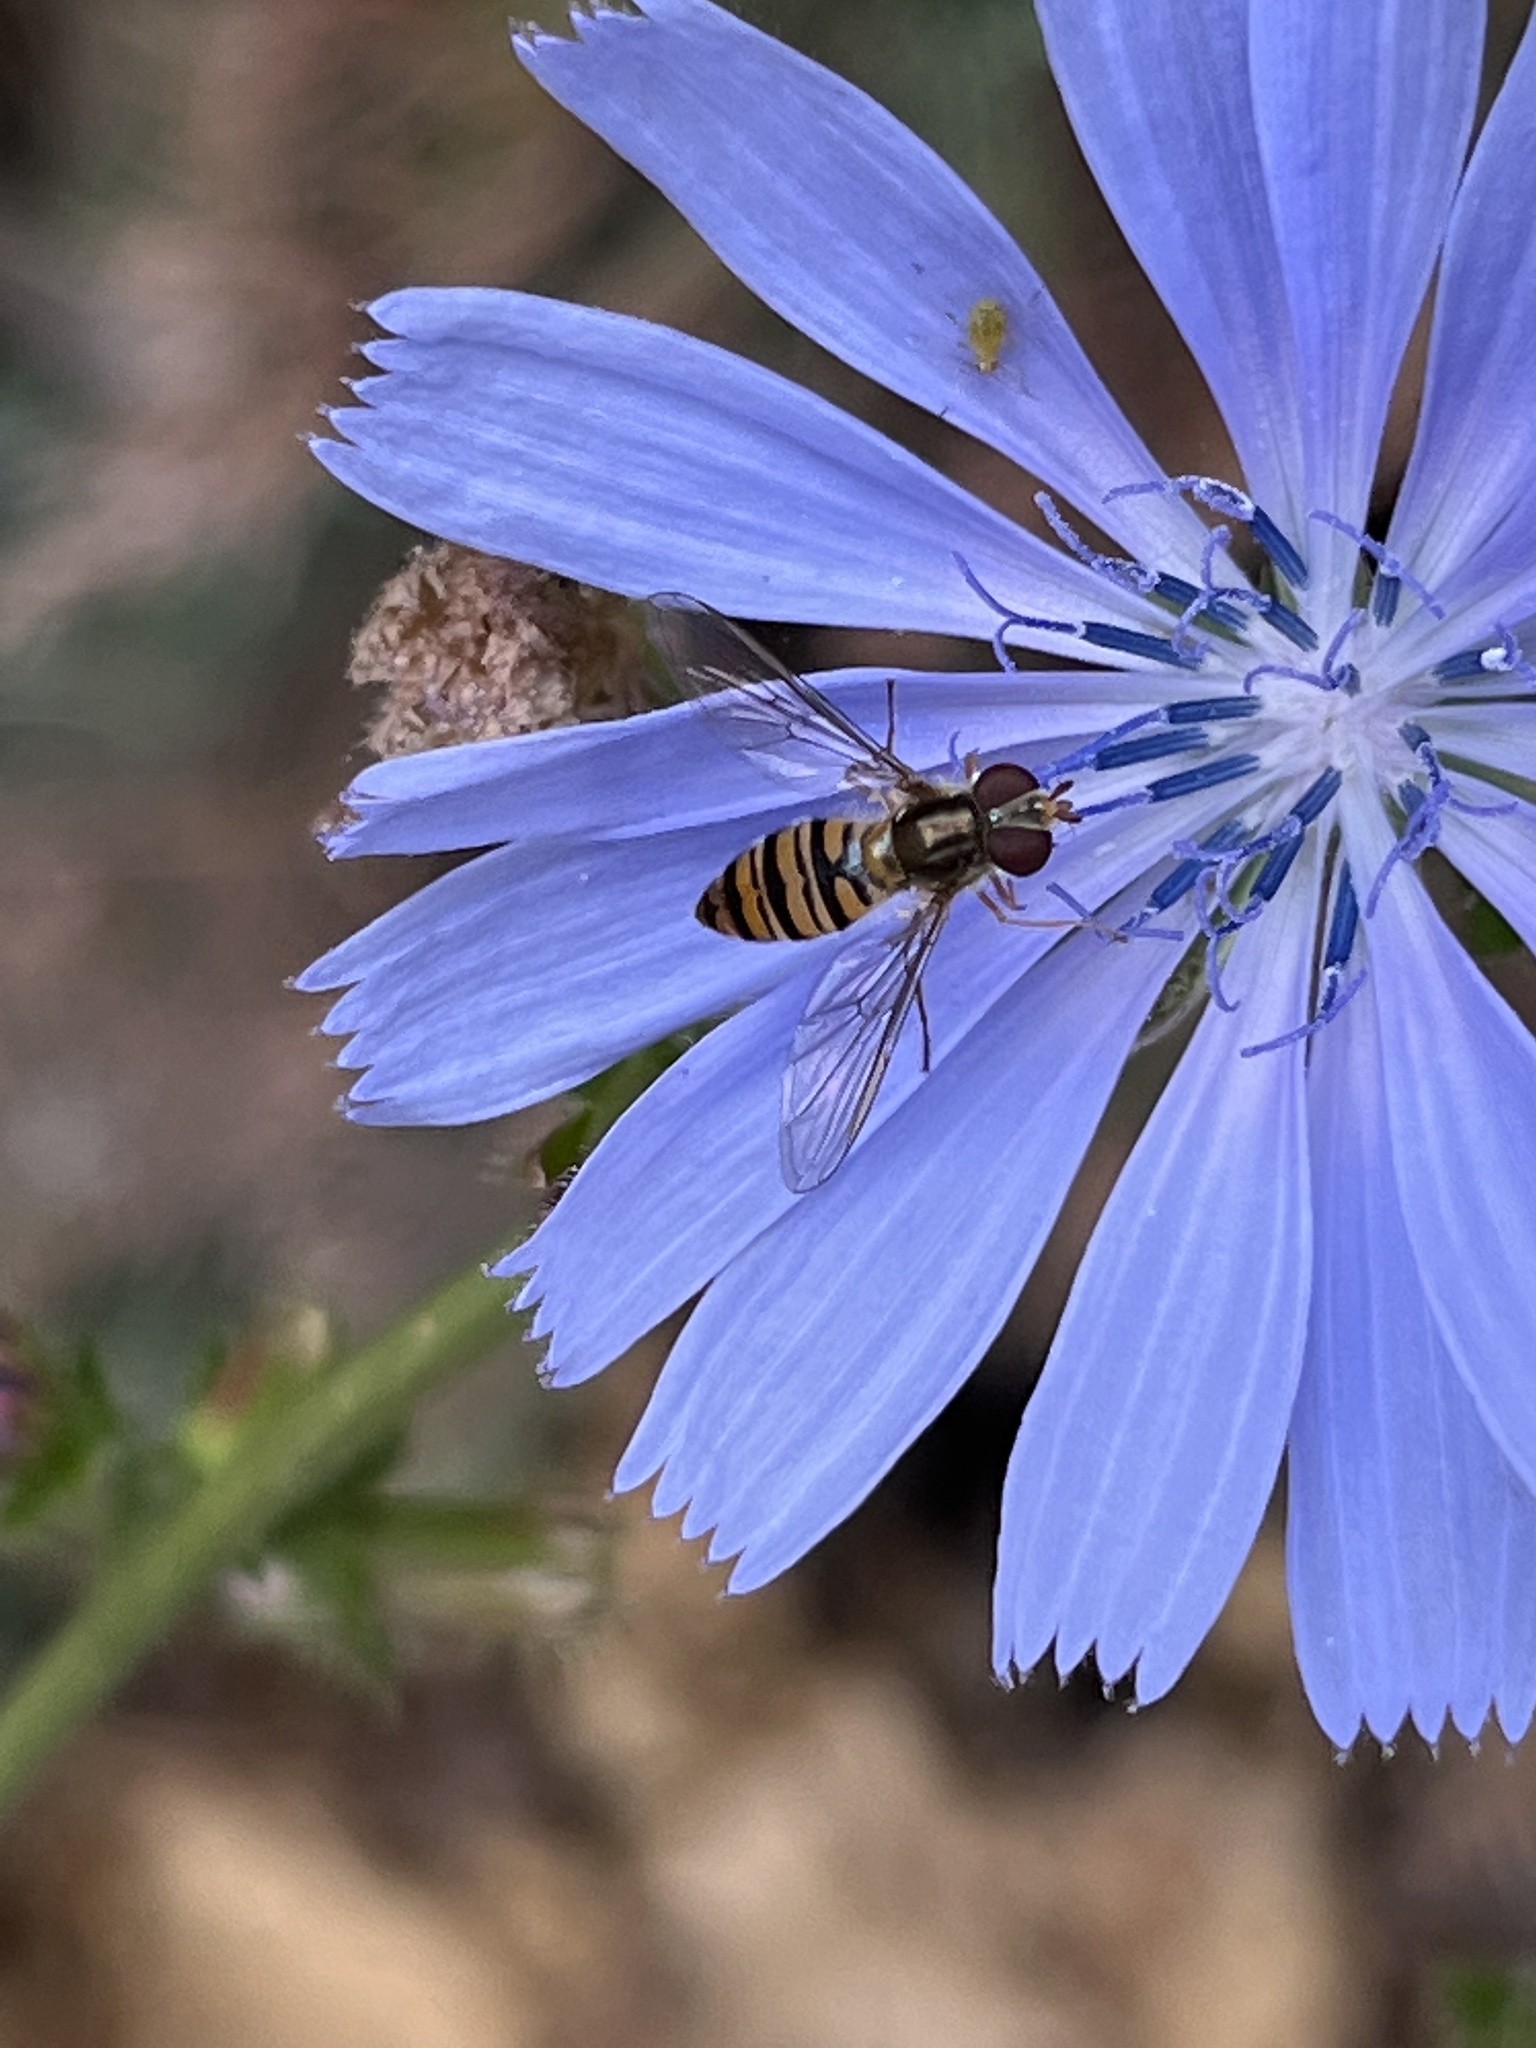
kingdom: Animalia
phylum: Arthropoda
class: Insecta
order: Diptera
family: Syrphidae
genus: Episyrphus
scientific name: Episyrphus balteatus
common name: Marmalade hoverfly
